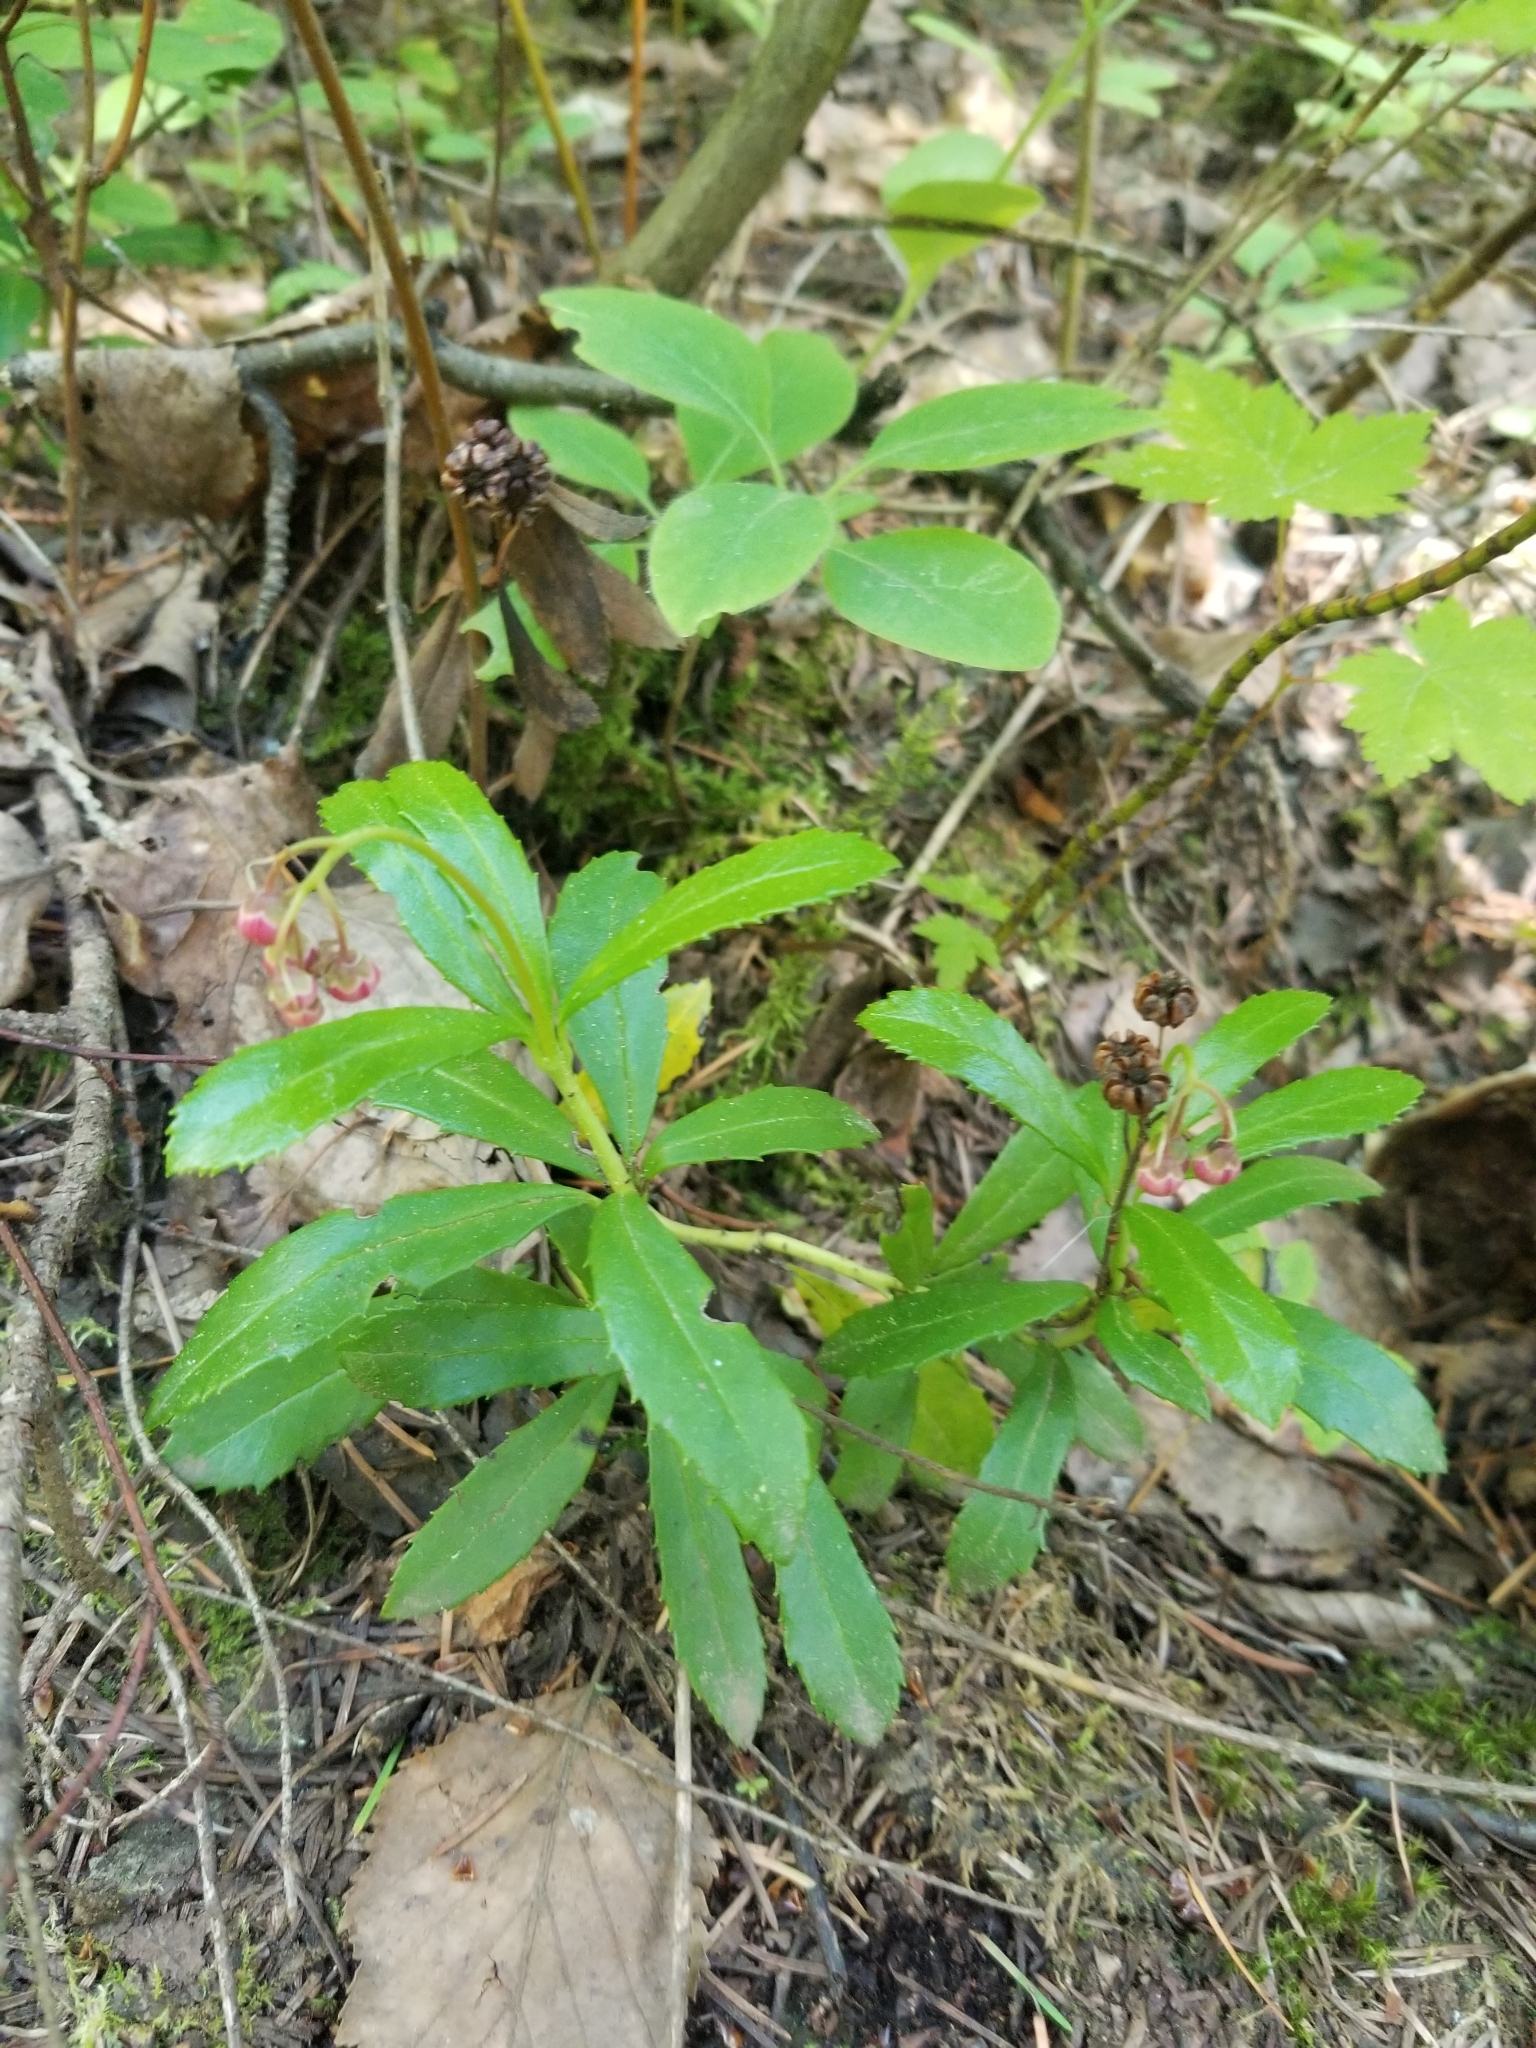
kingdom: Plantae
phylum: Tracheophyta
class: Magnoliopsida
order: Ericales
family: Ericaceae
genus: Chimaphila
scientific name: Chimaphila umbellata
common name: Pipsissewa
